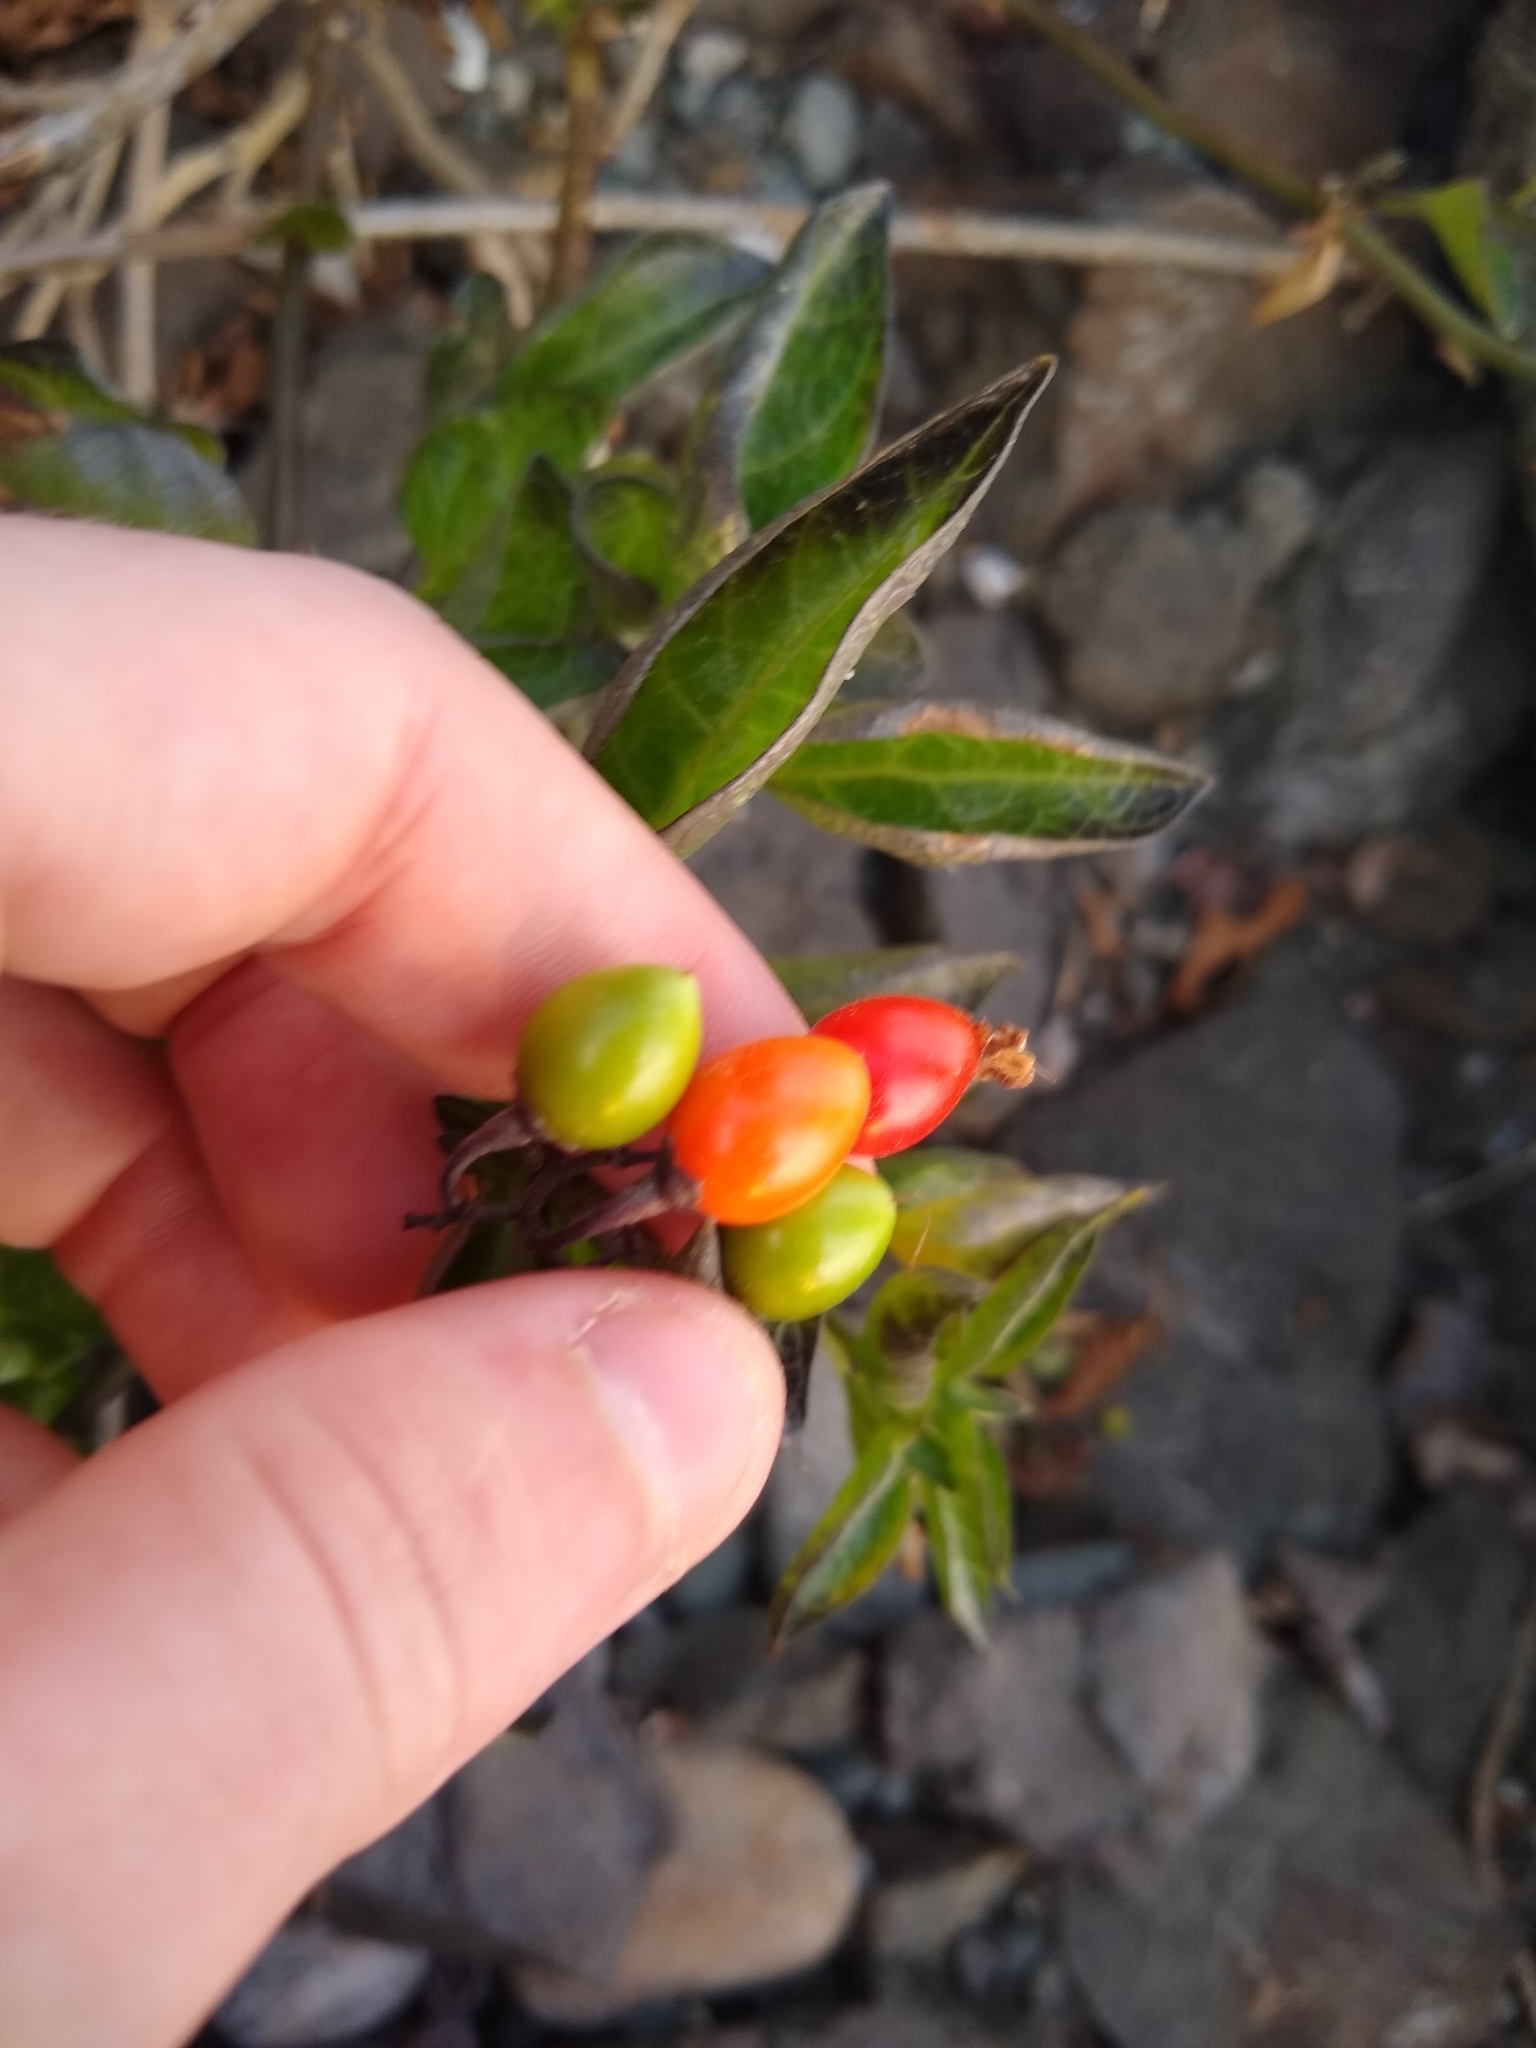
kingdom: Plantae
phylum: Tracheophyta
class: Magnoliopsida
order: Solanales
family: Solanaceae
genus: Solanum
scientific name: Solanum dulcamara
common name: Climbing nightshade
